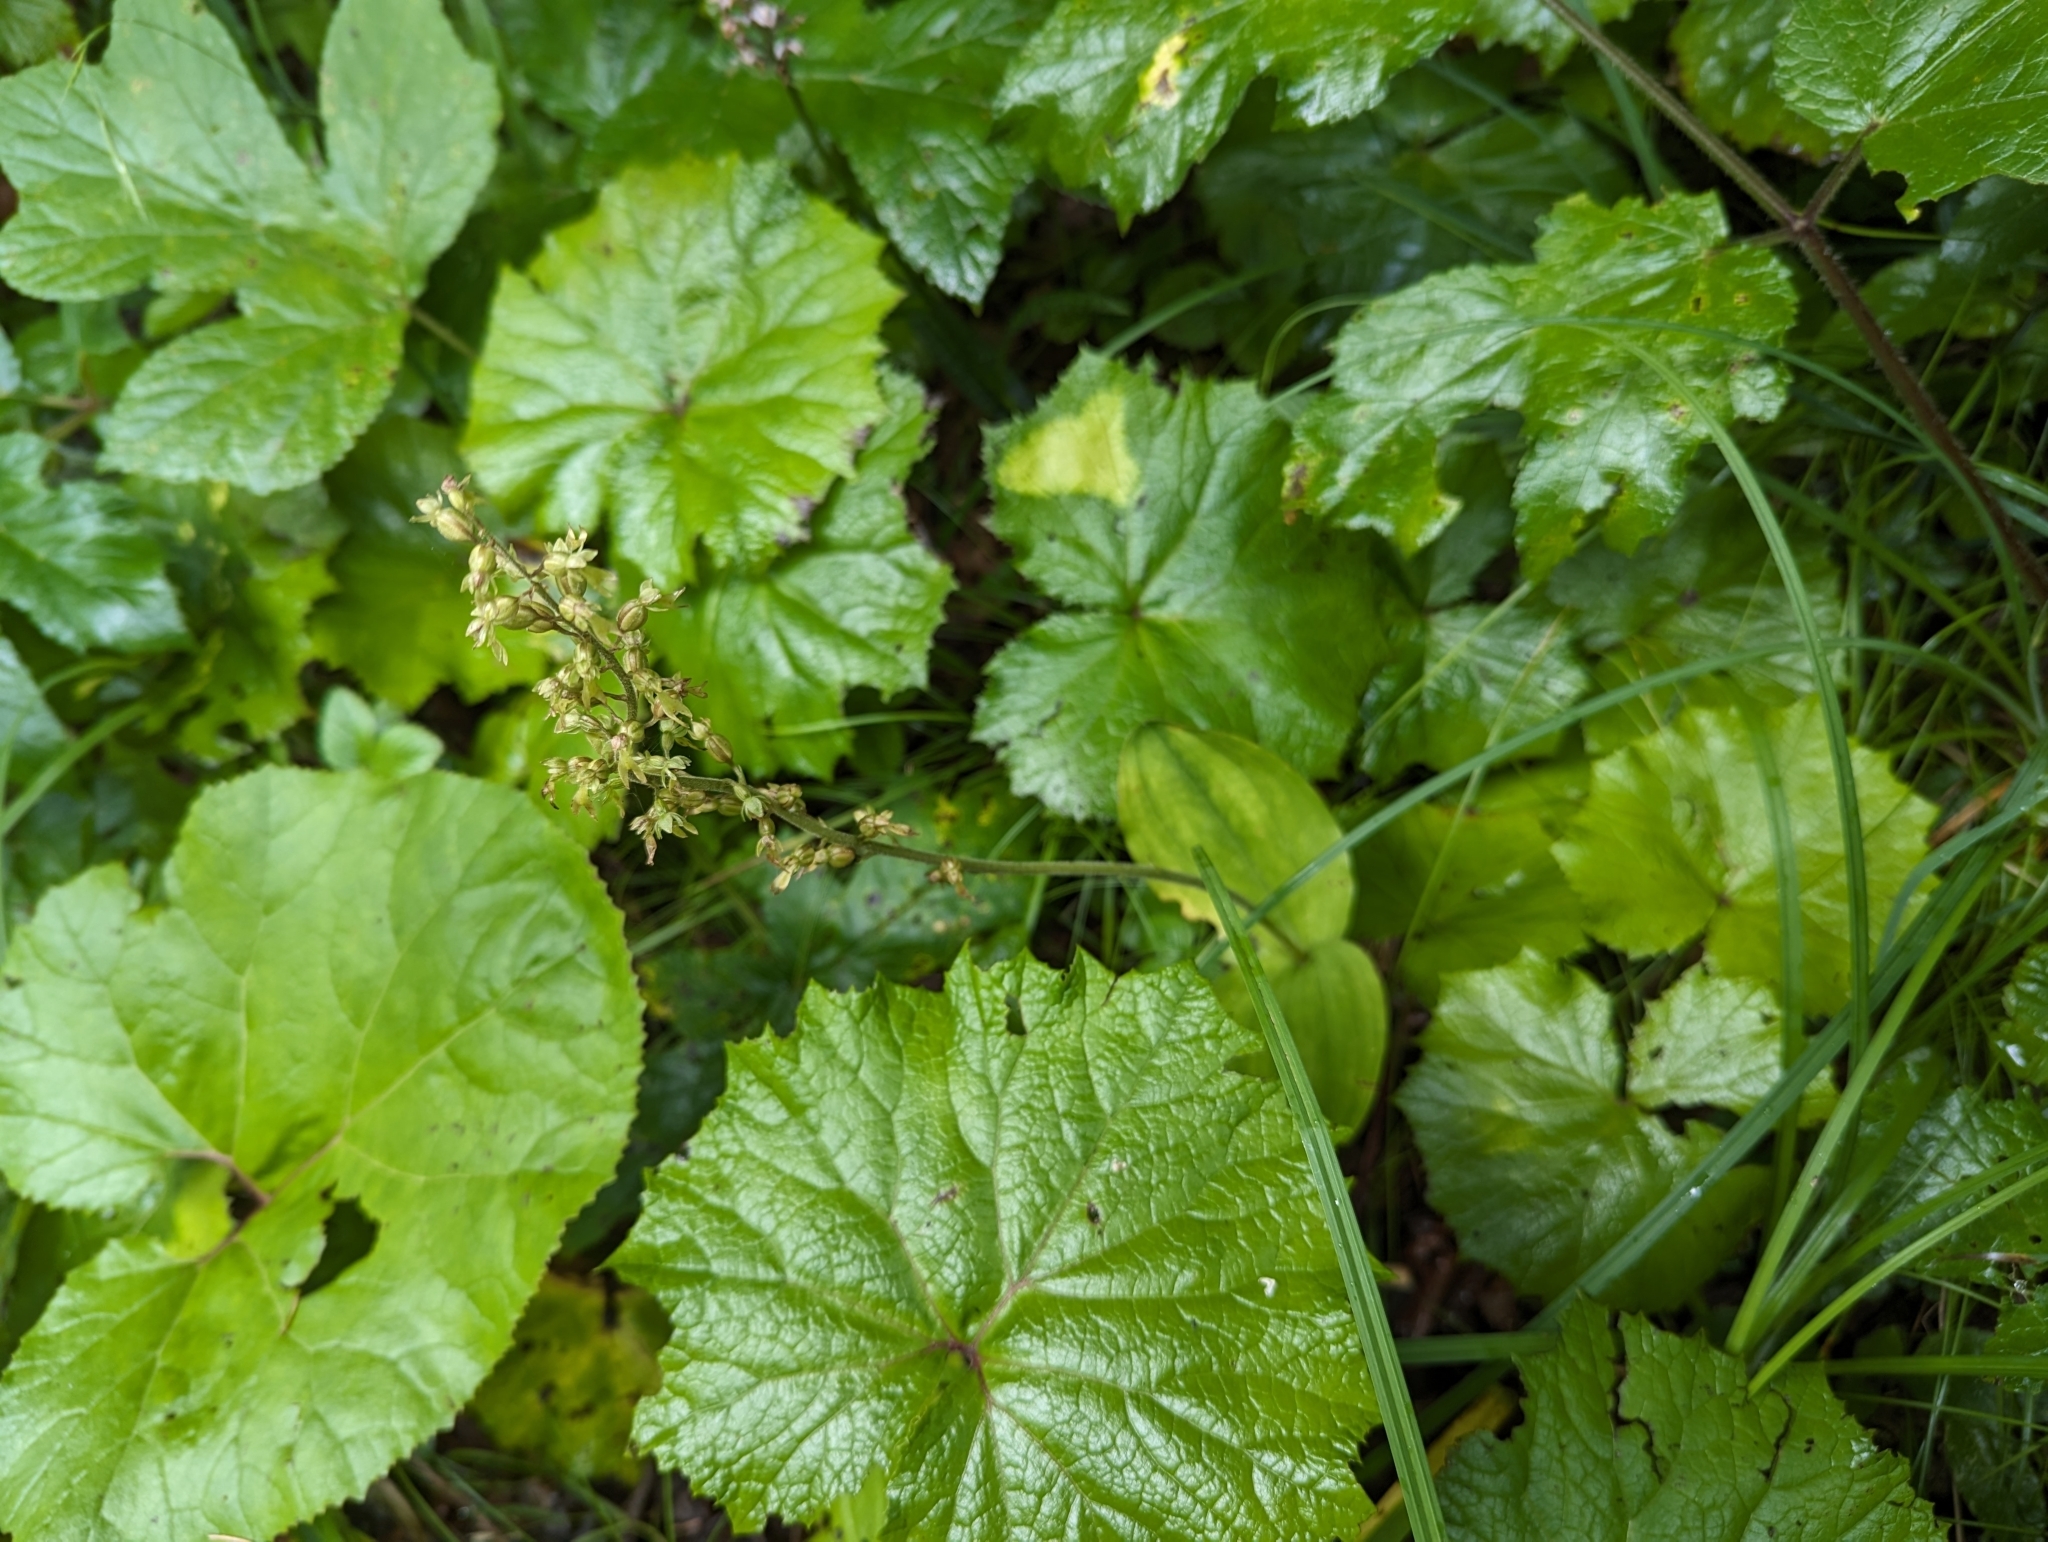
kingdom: Plantae
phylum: Tracheophyta
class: Liliopsida
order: Asparagales
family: Orchidaceae
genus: Neottia
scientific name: Neottia ovata
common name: Common twayblade
